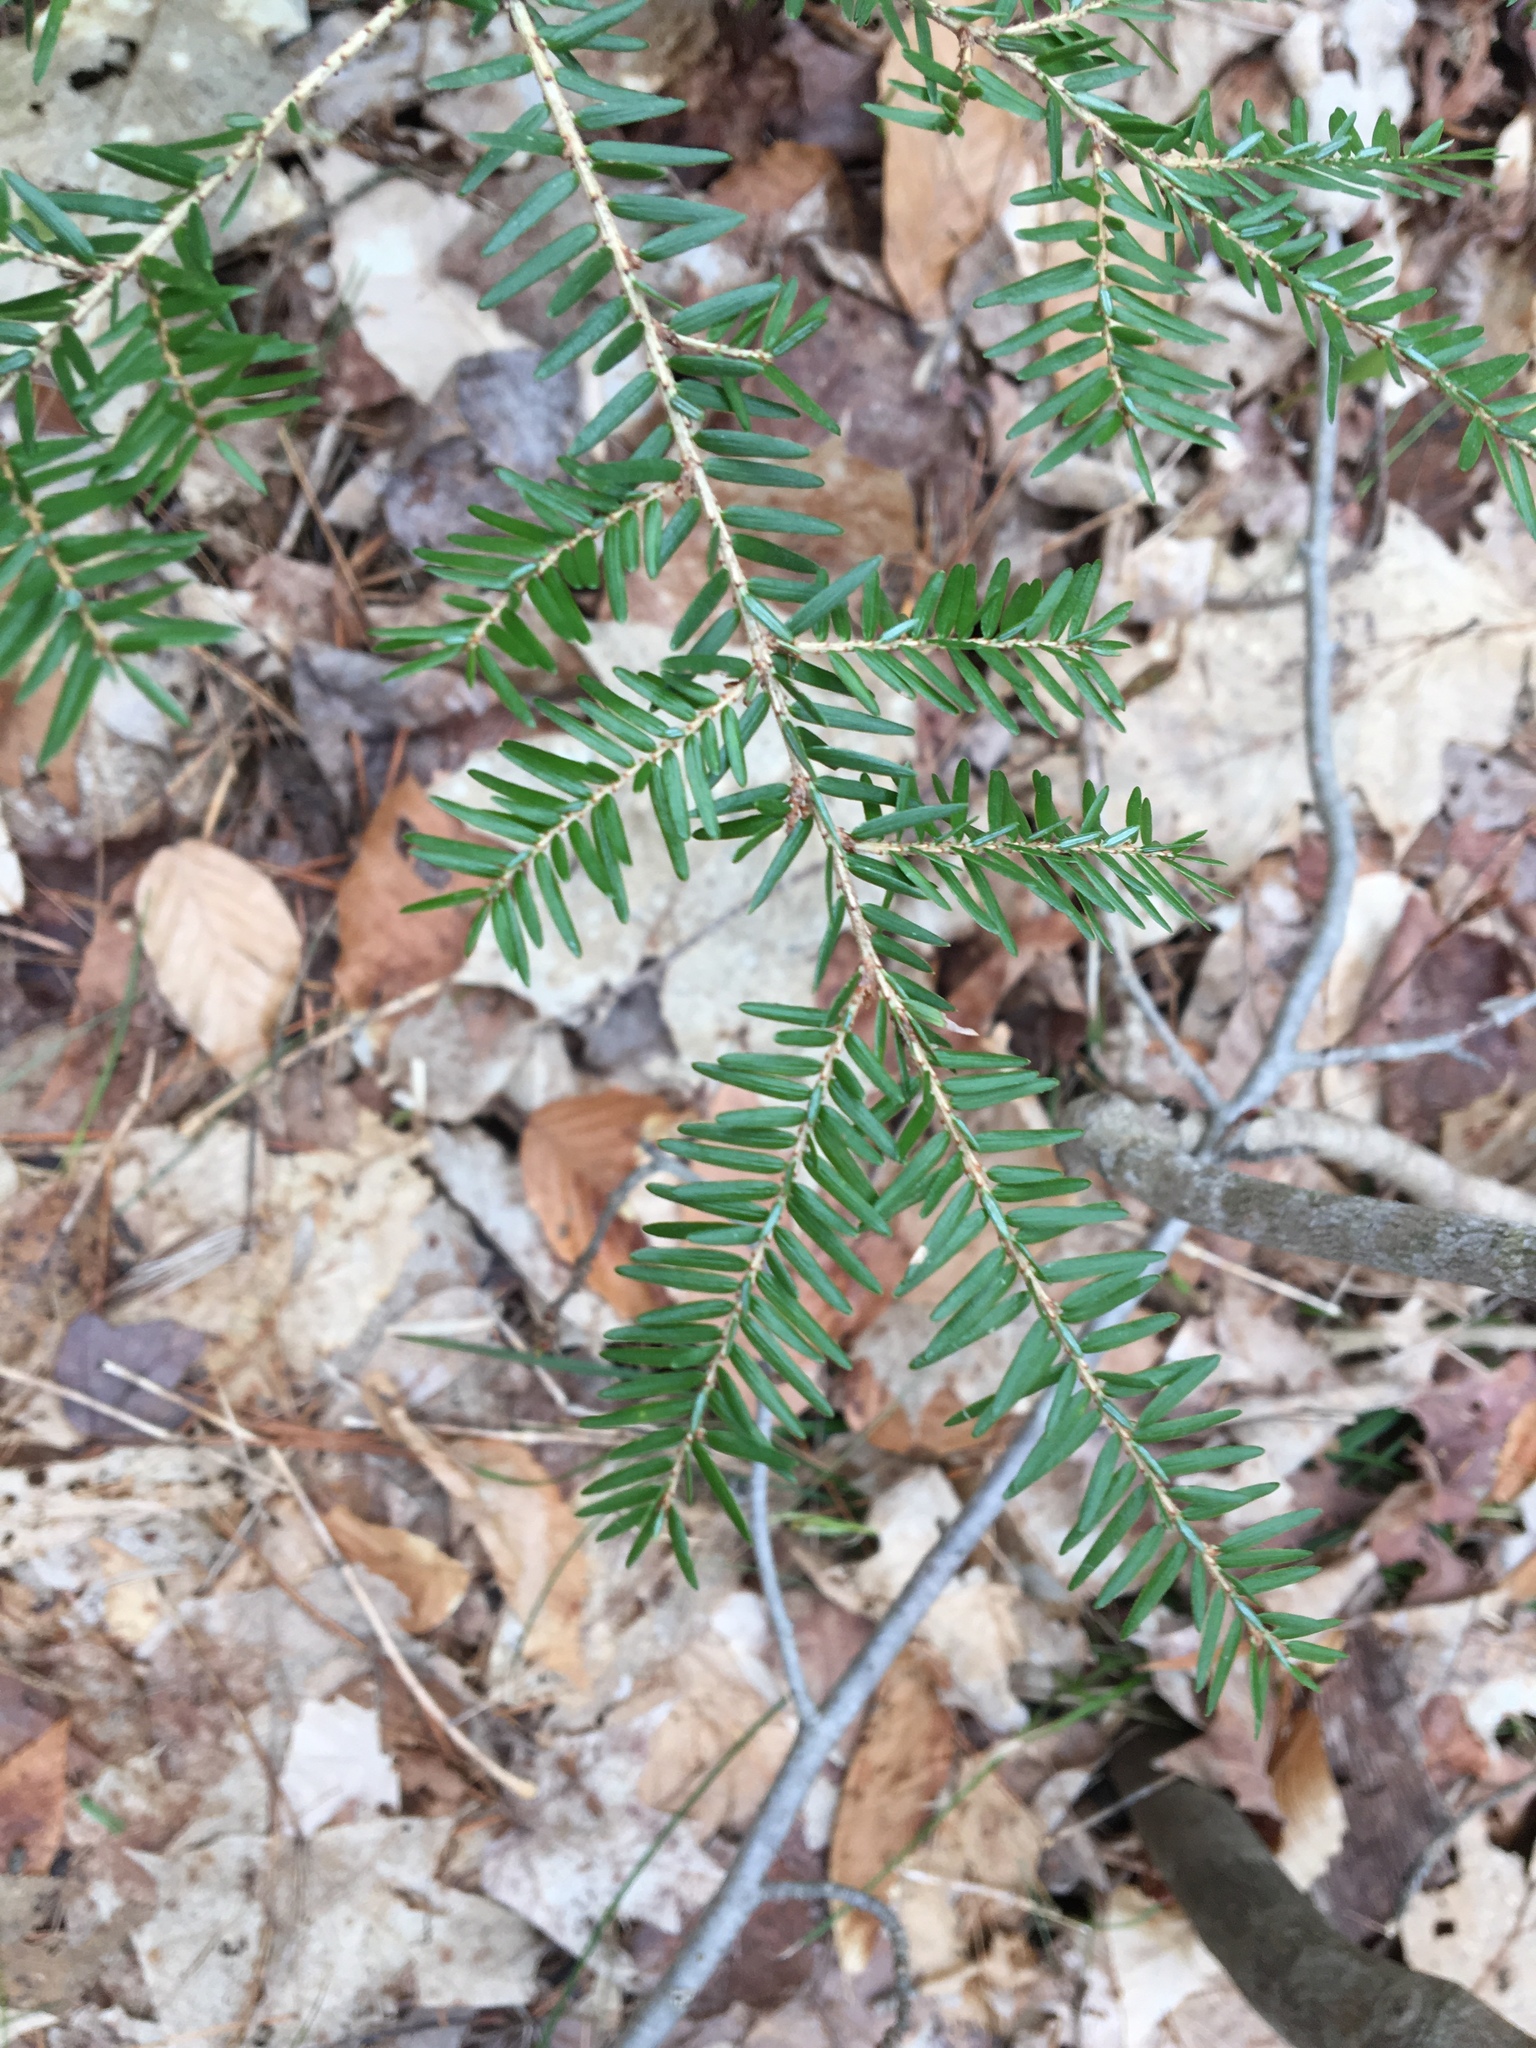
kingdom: Plantae
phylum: Tracheophyta
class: Pinopsida
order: Pinales
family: Pinaceae
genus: Tsuga
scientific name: Tsuga canadensis
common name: Eastern hemlock
